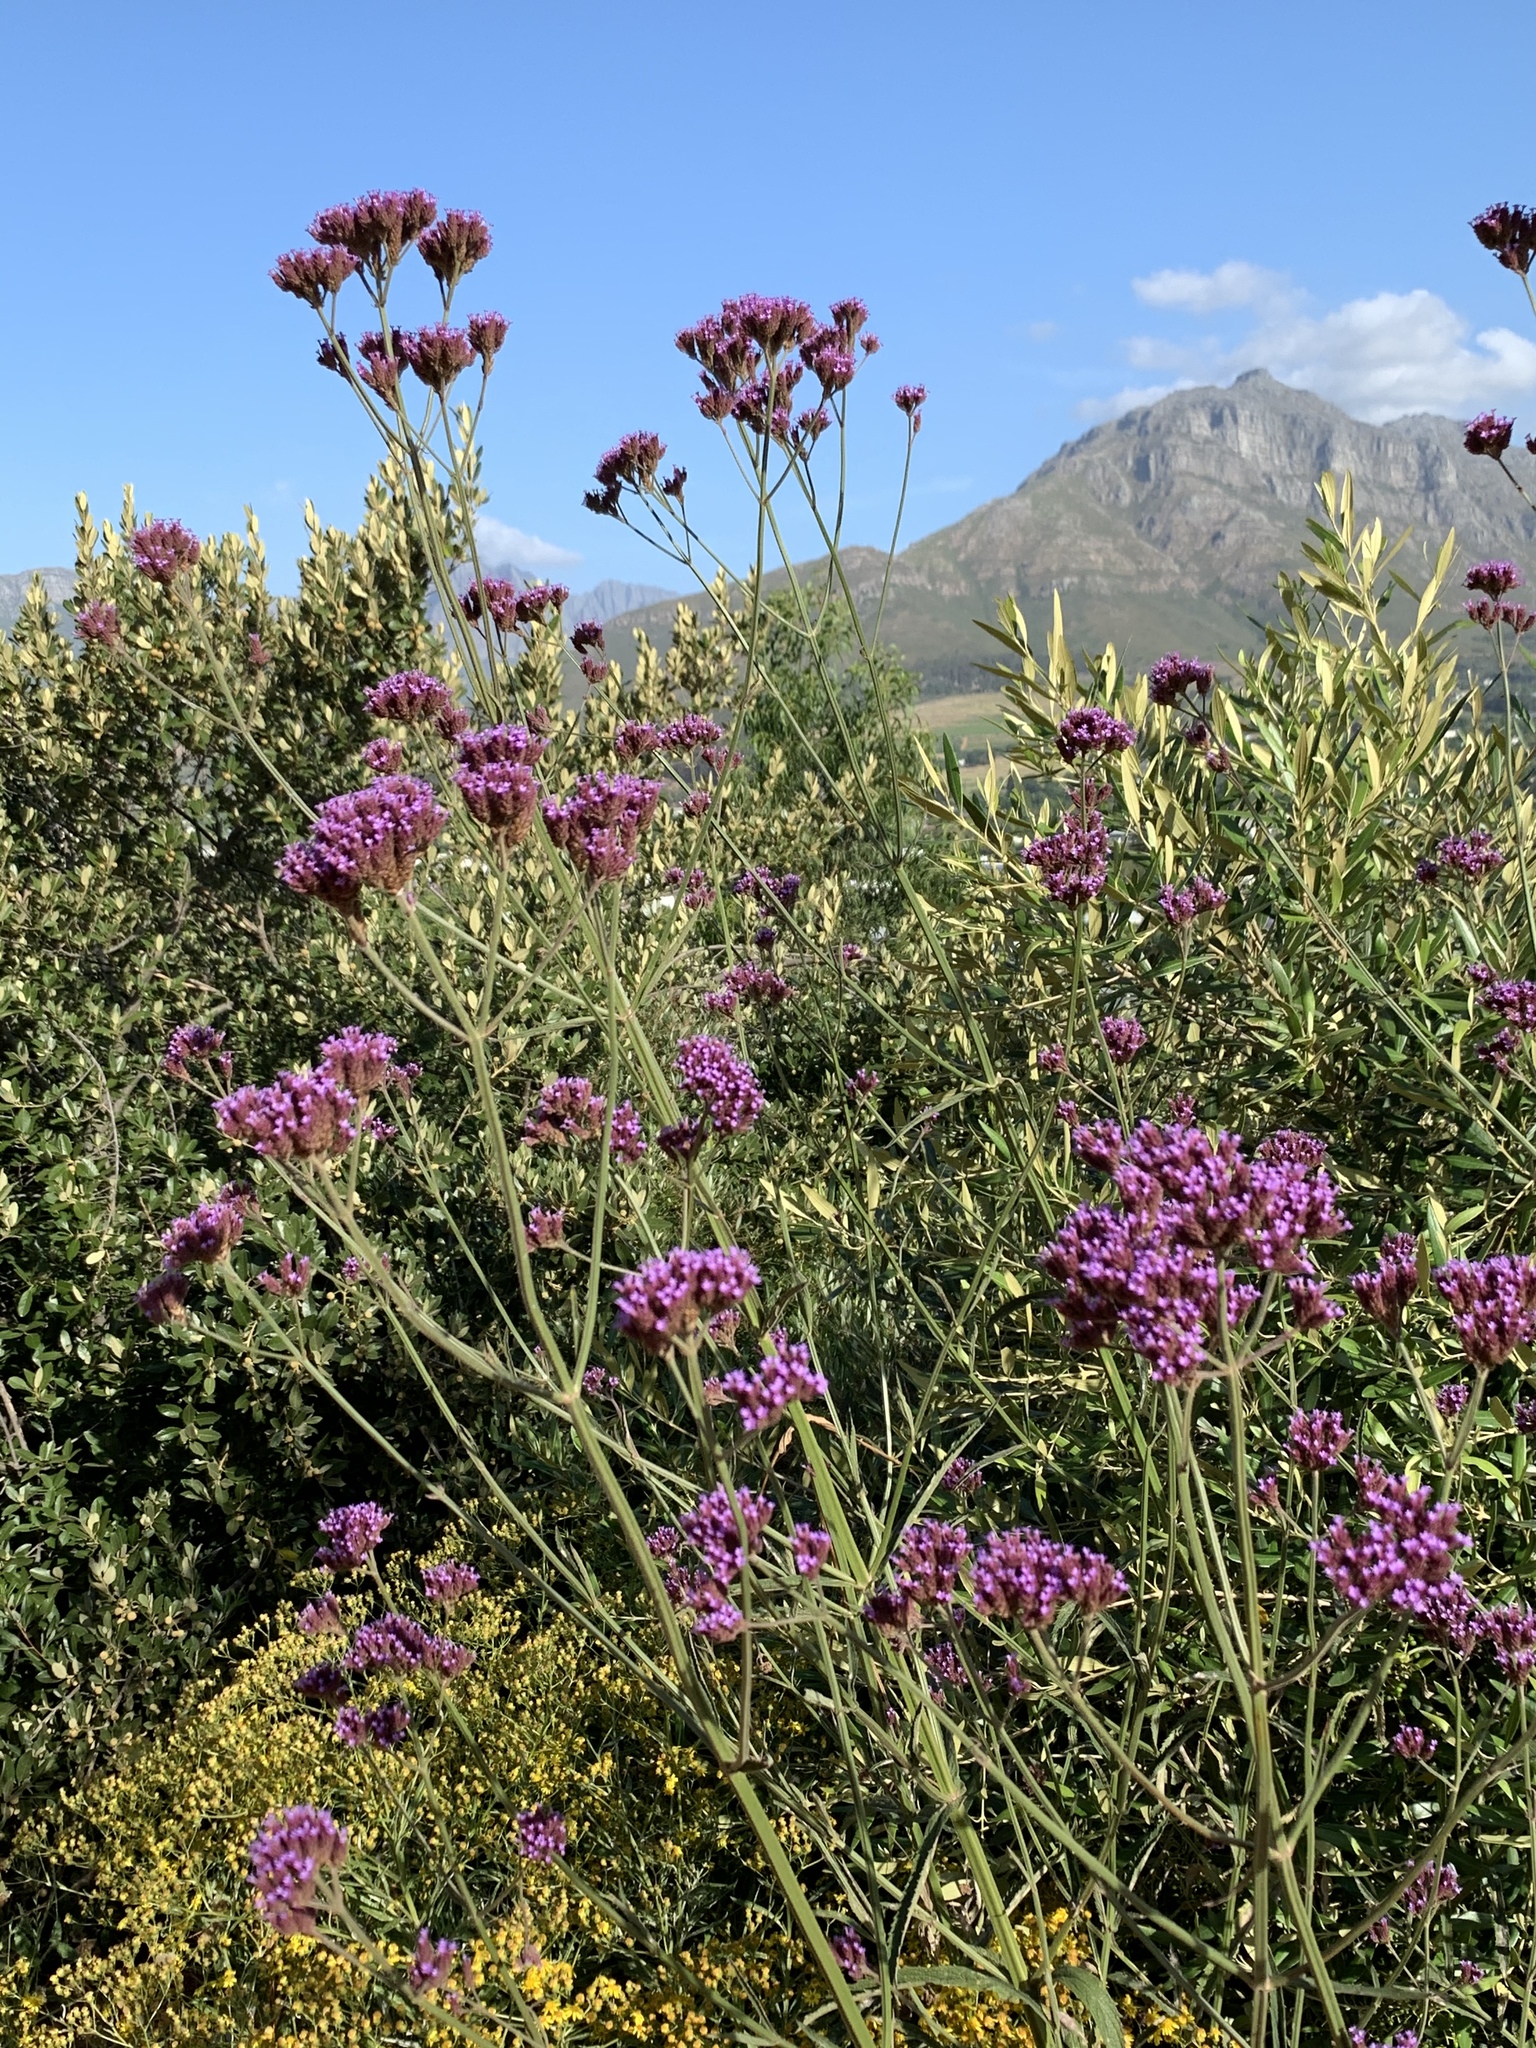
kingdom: Plantae
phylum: Tracheophyta
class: Magnoliopsida
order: Lamiales
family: Verbenaceae
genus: Verbena
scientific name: Verbena bonariensis
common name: Purpletop vervain
